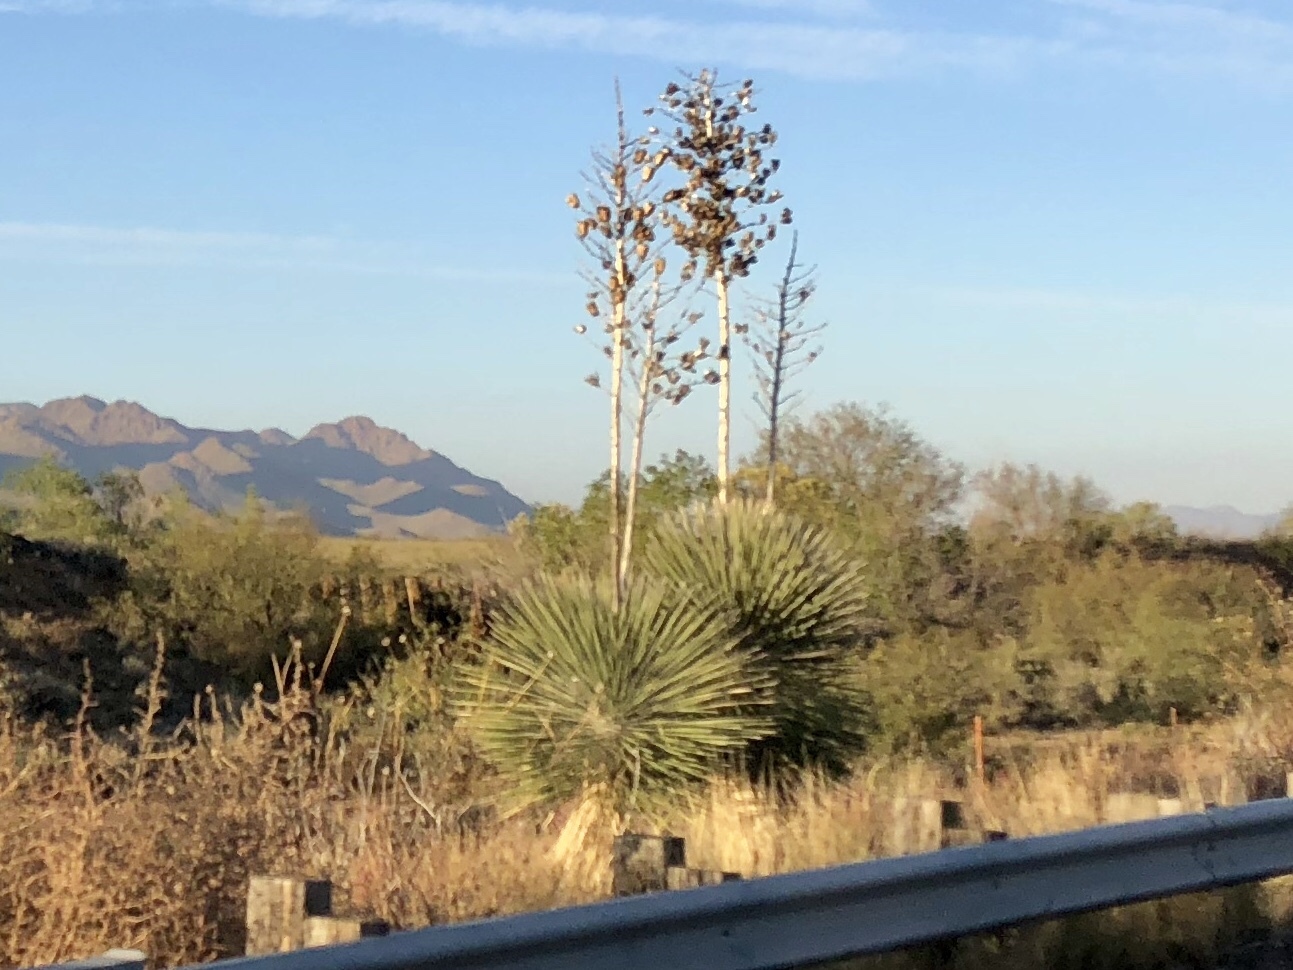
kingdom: Plantae
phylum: Tracheophyta
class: Liliopsida
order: Asparagales
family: Asparagaceae
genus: Yucca
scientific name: Yucca elata
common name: Palmella
